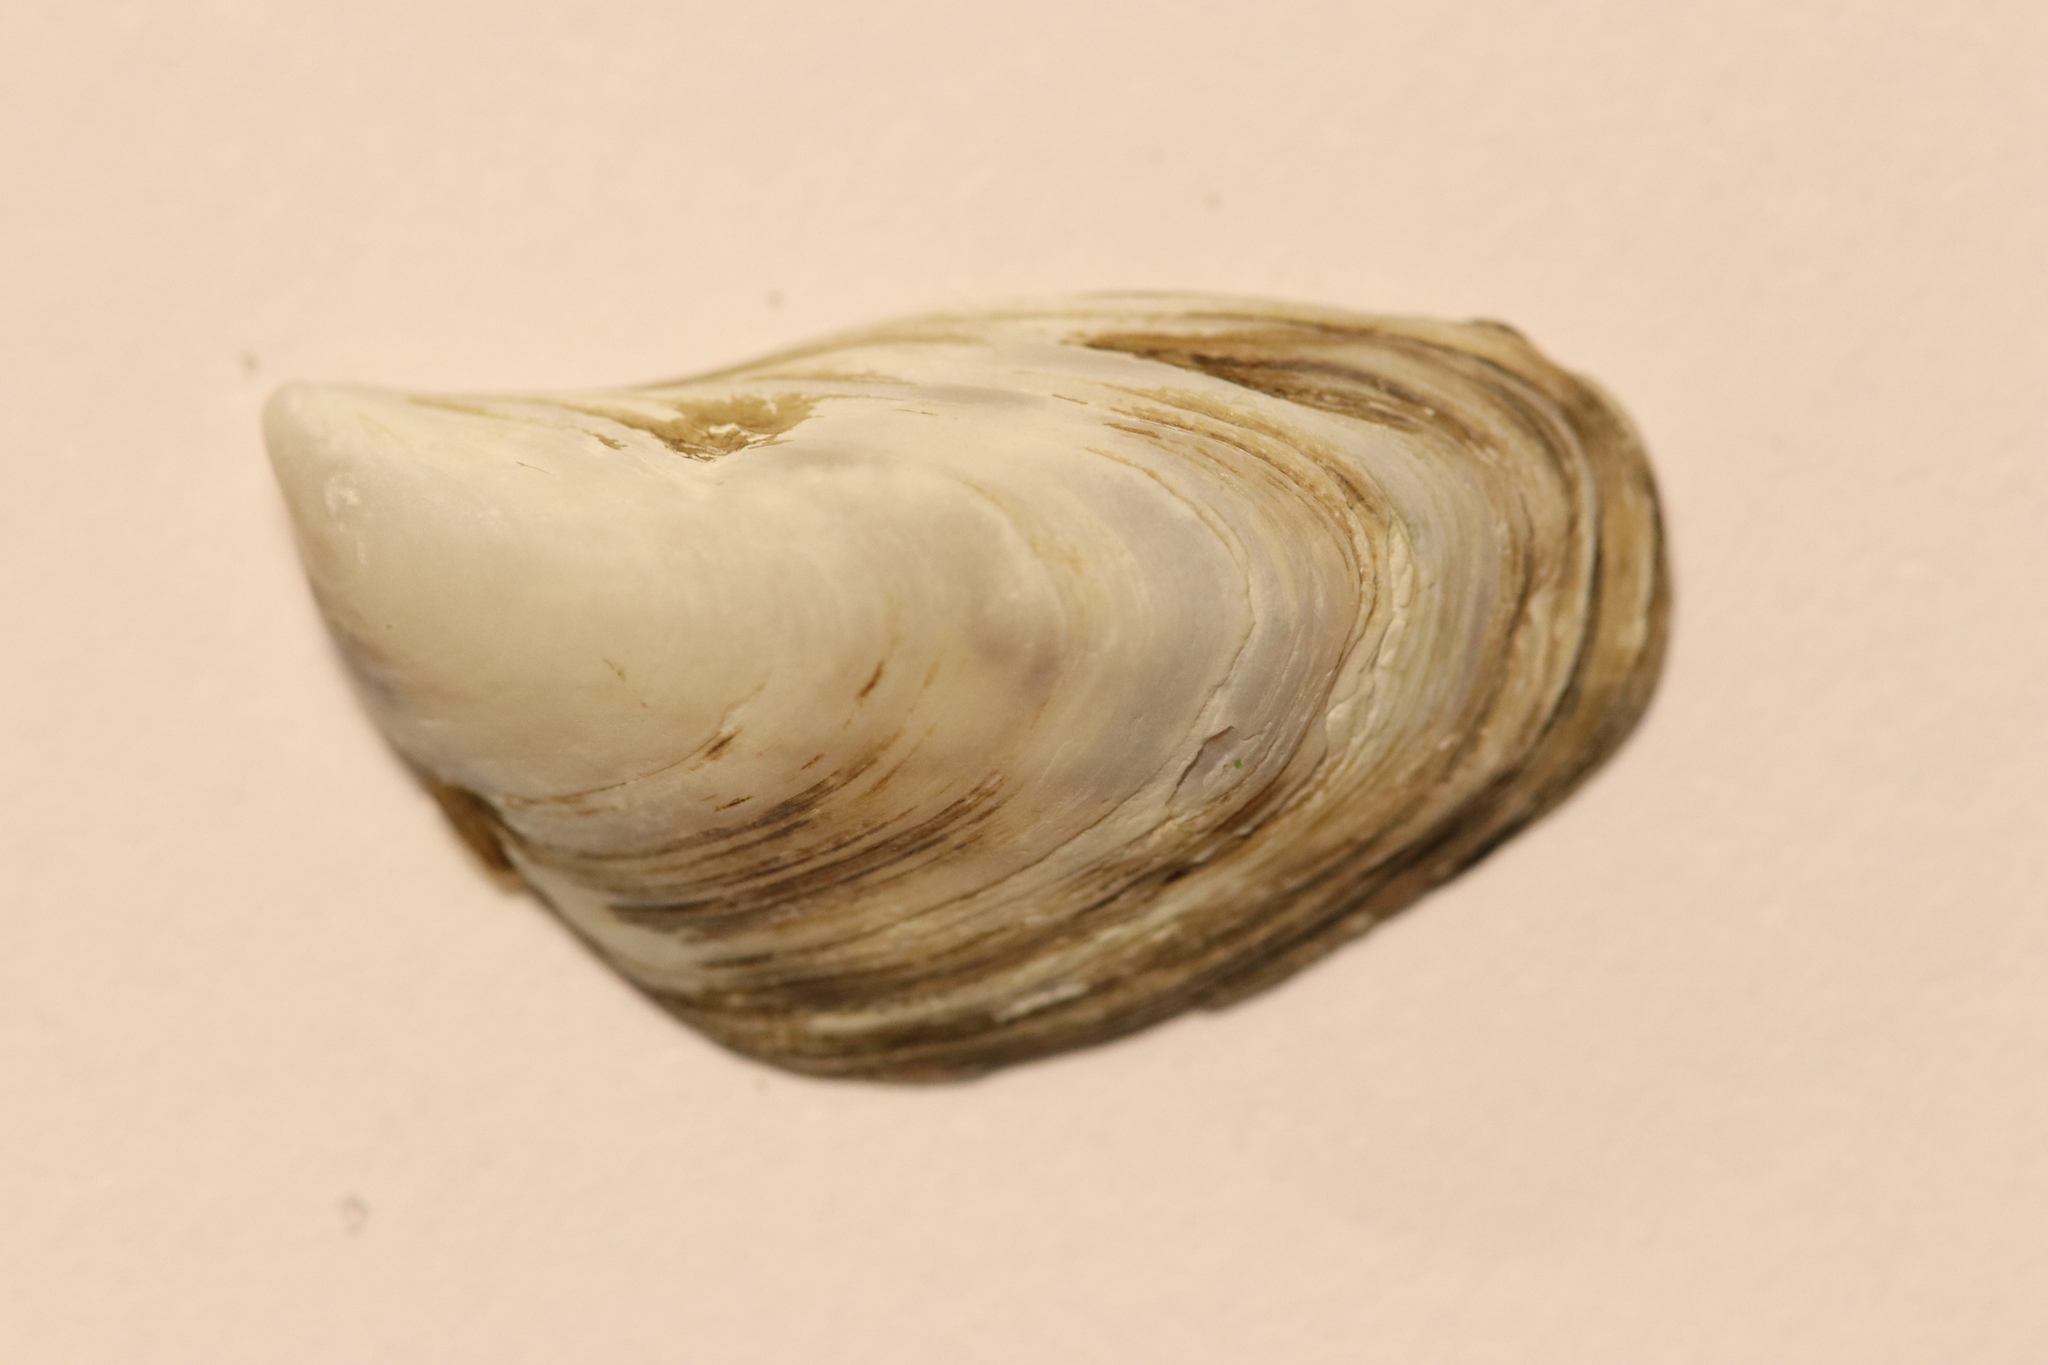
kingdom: Animalia
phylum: Mollusca
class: Bivalvia
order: Myida
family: Dreissenidae
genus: Dreissena
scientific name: Dreissena bugensis
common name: Quagga mussel
